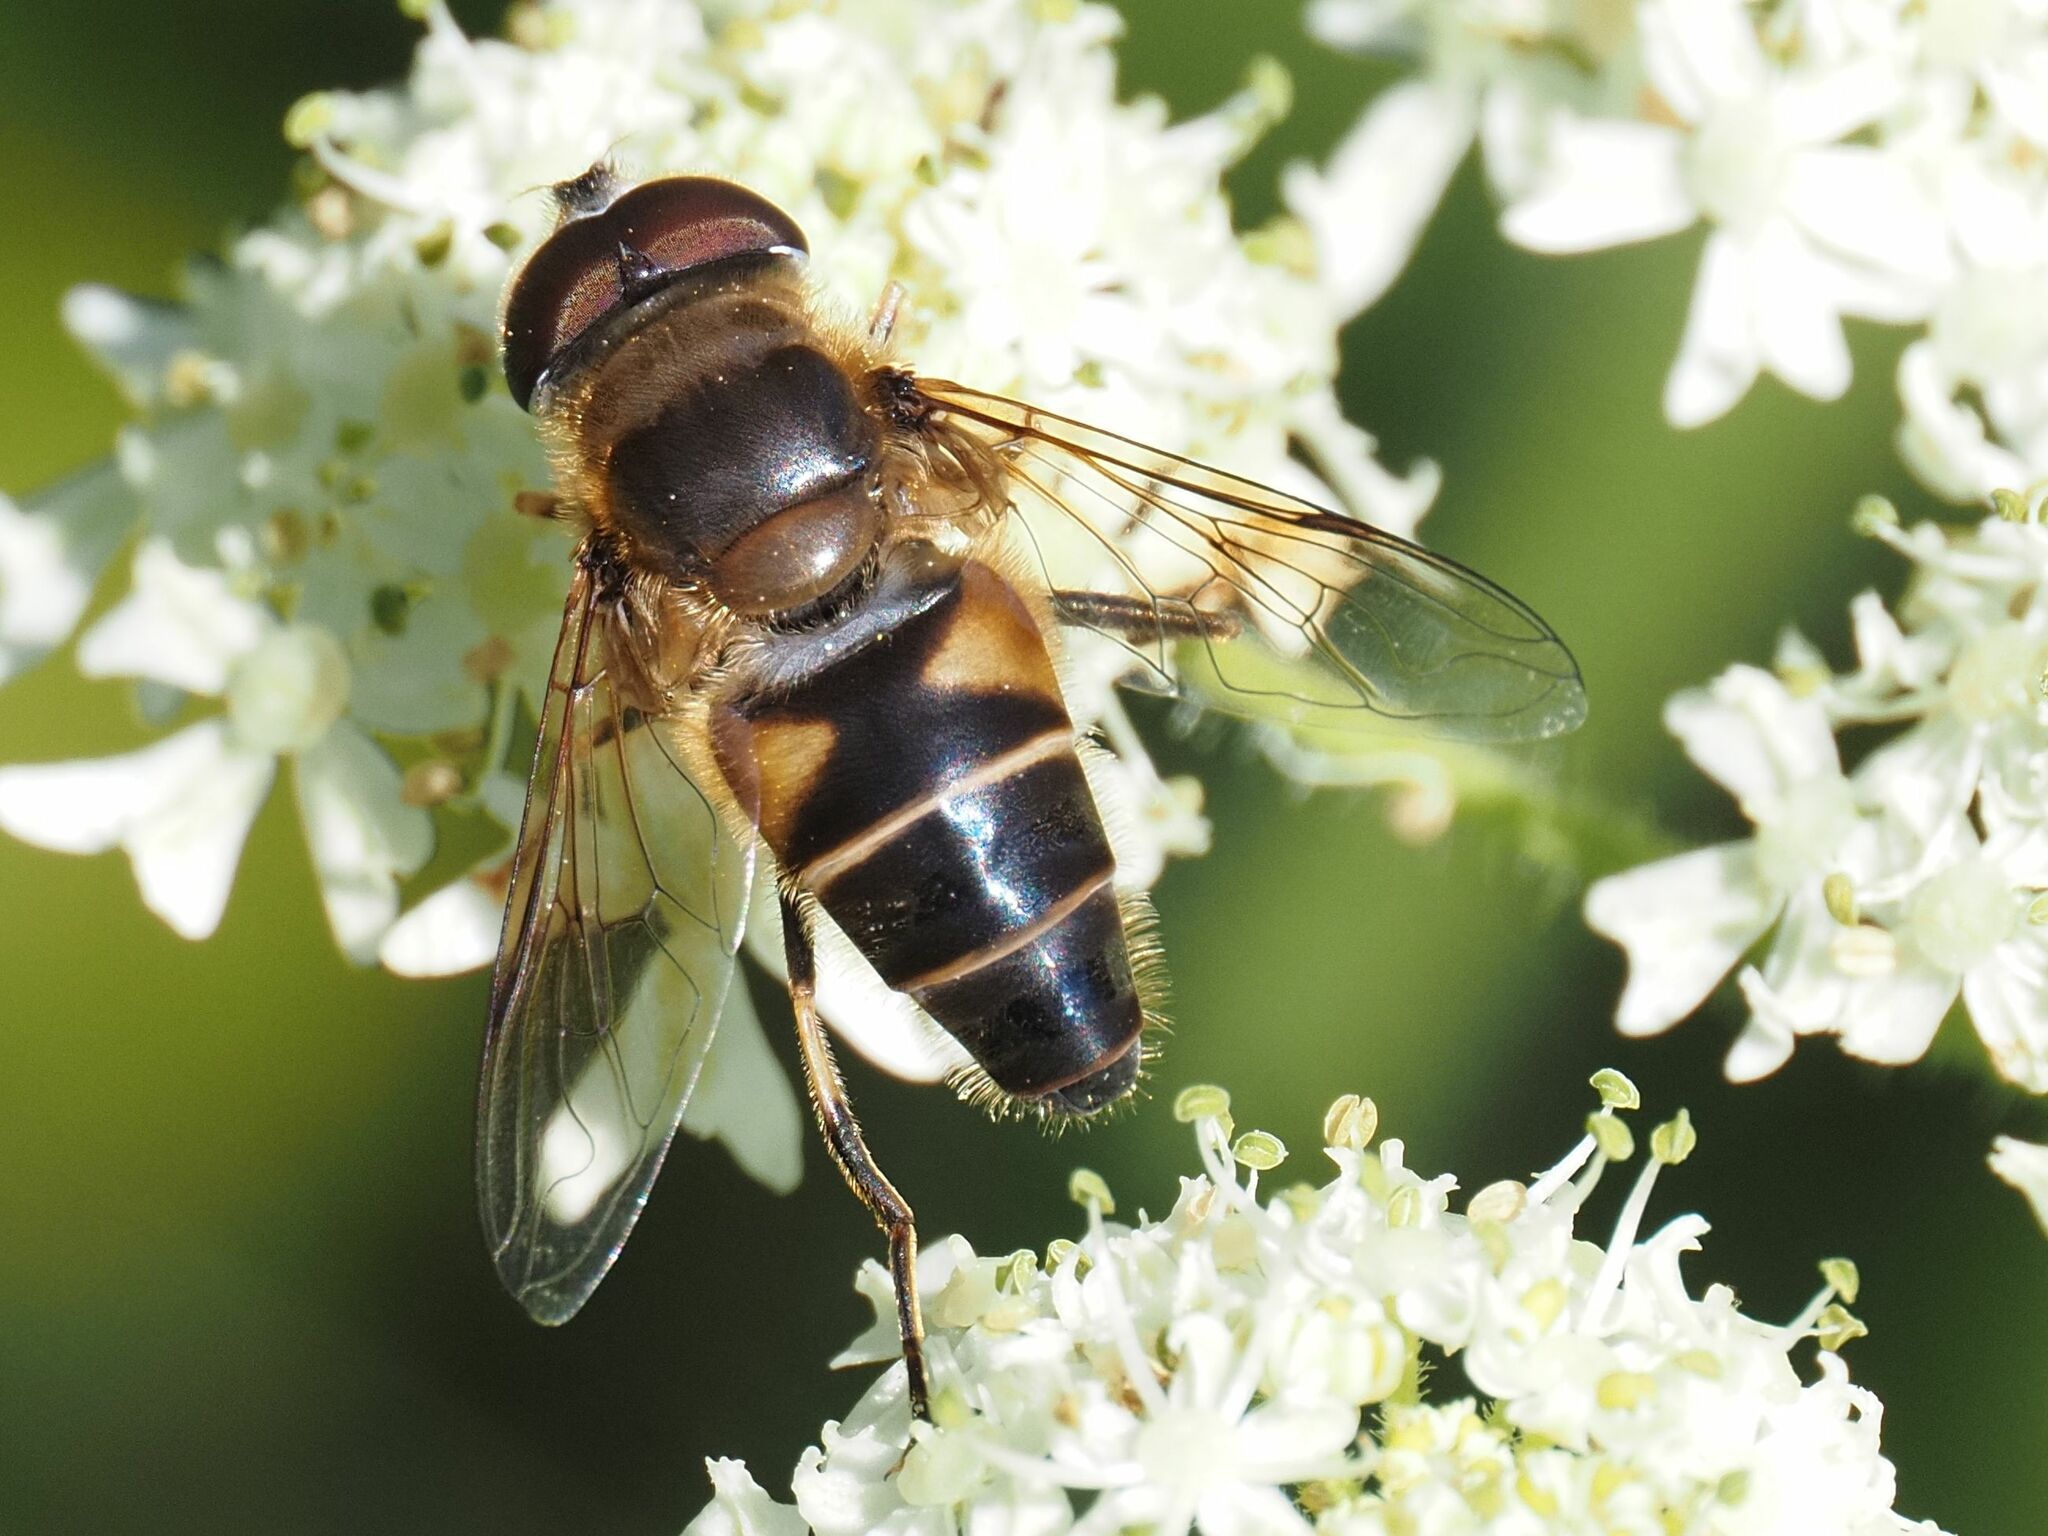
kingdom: Animalia
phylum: Arthropoda
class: Insecta
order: Diptera
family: Syrphidae
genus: Eristalis
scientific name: Eristalis pertinax
